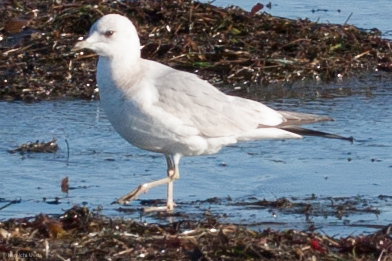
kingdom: Animalia
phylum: Chordata
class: Aves
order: Charadriiformes
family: Laridae
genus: Larus
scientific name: Larus brachyrhynchus
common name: Short-billed gull
